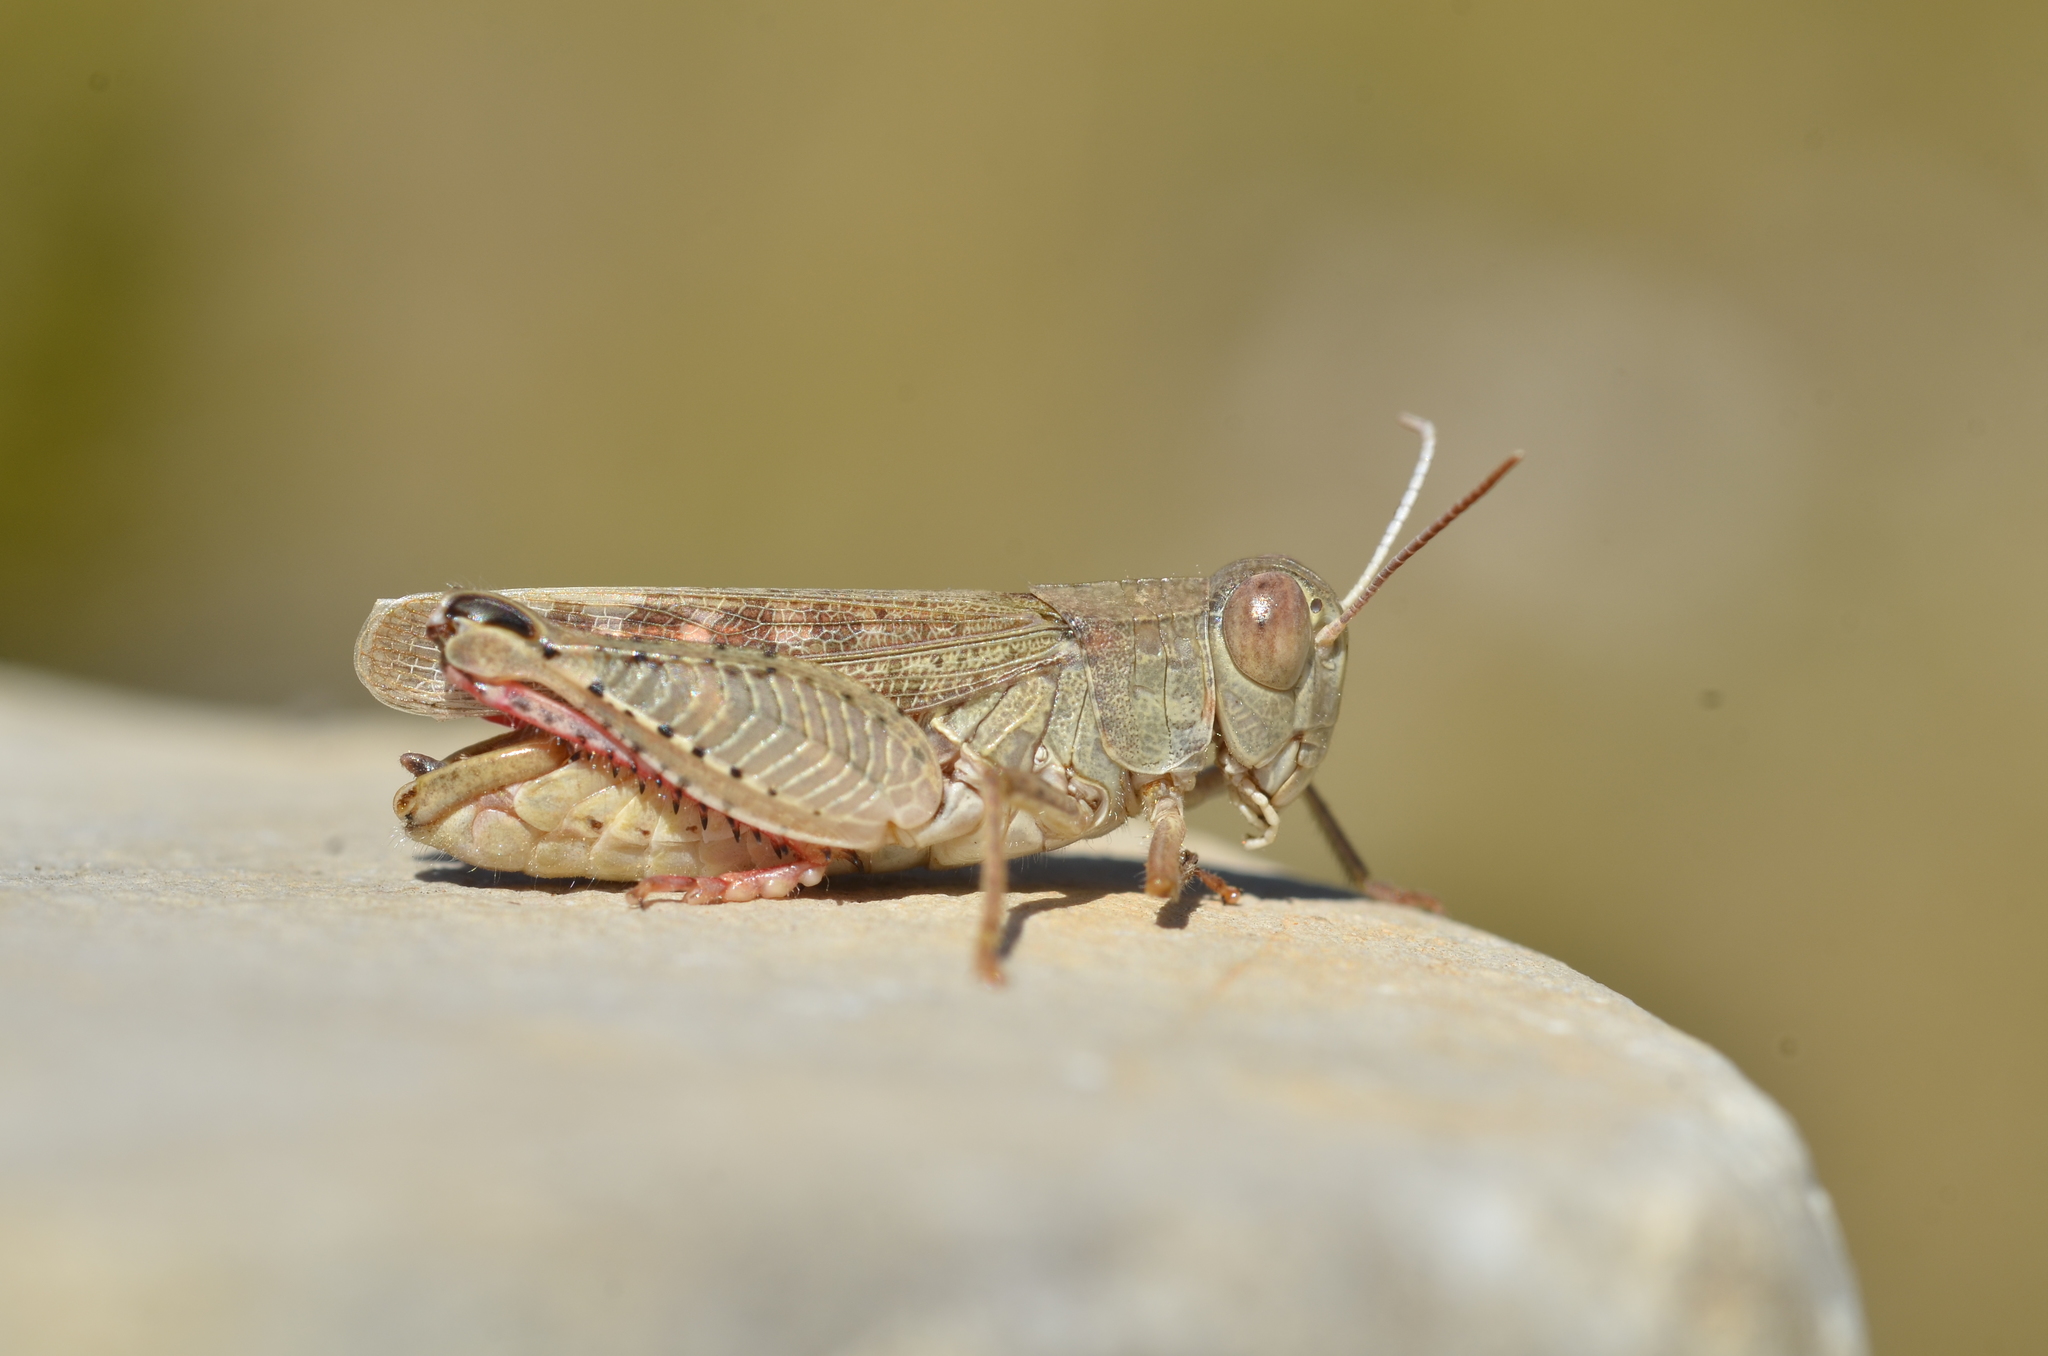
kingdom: Animalia
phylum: Arthropoda
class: Insecta
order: Orthoptera
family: Acrididae
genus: Calliptamus
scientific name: Calliptamus italicus
